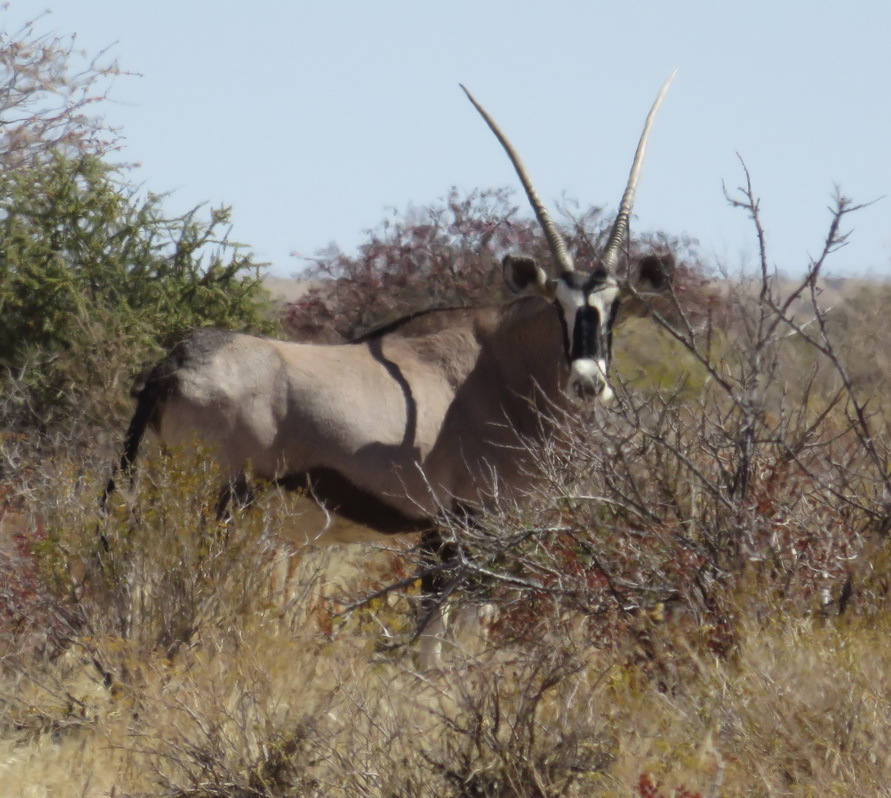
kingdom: Animalia
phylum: Chordata
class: Mammalia
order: Artiodactyla
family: Bovidae
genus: Oryx
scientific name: Oryx gazella
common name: Gemsbok
